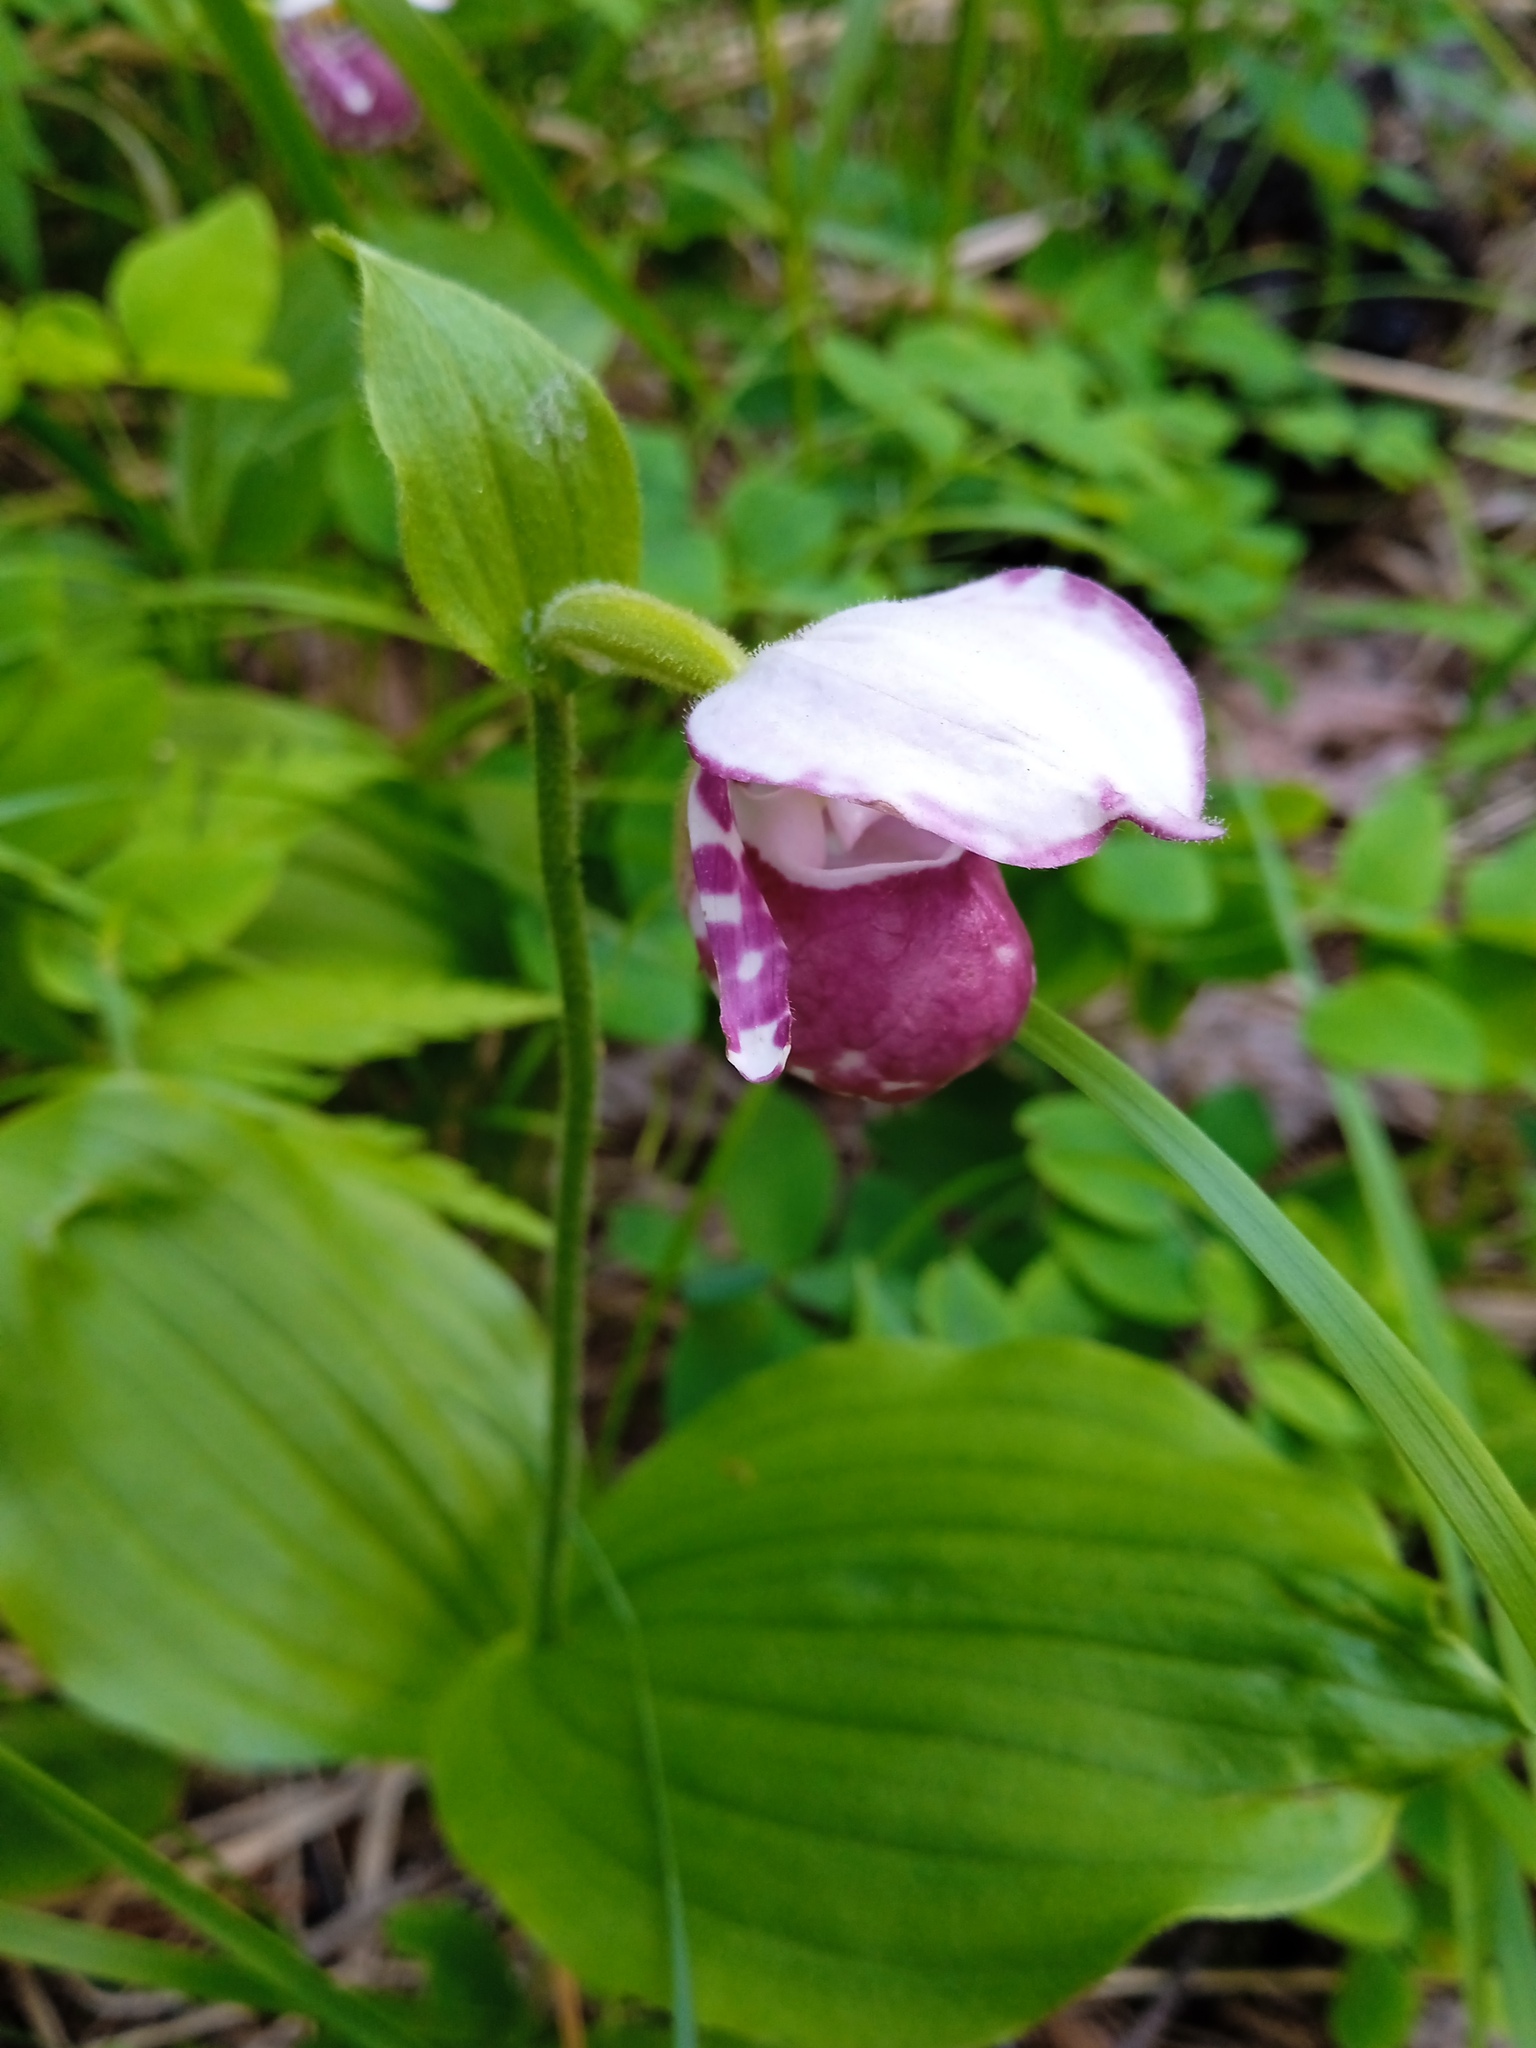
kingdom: Plantae
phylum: Tracheophyta
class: Liliopsida
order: Asparagales
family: Orchidaceae
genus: Cypripedium
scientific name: Cypripedium guttatum
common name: Pink lady slipper
